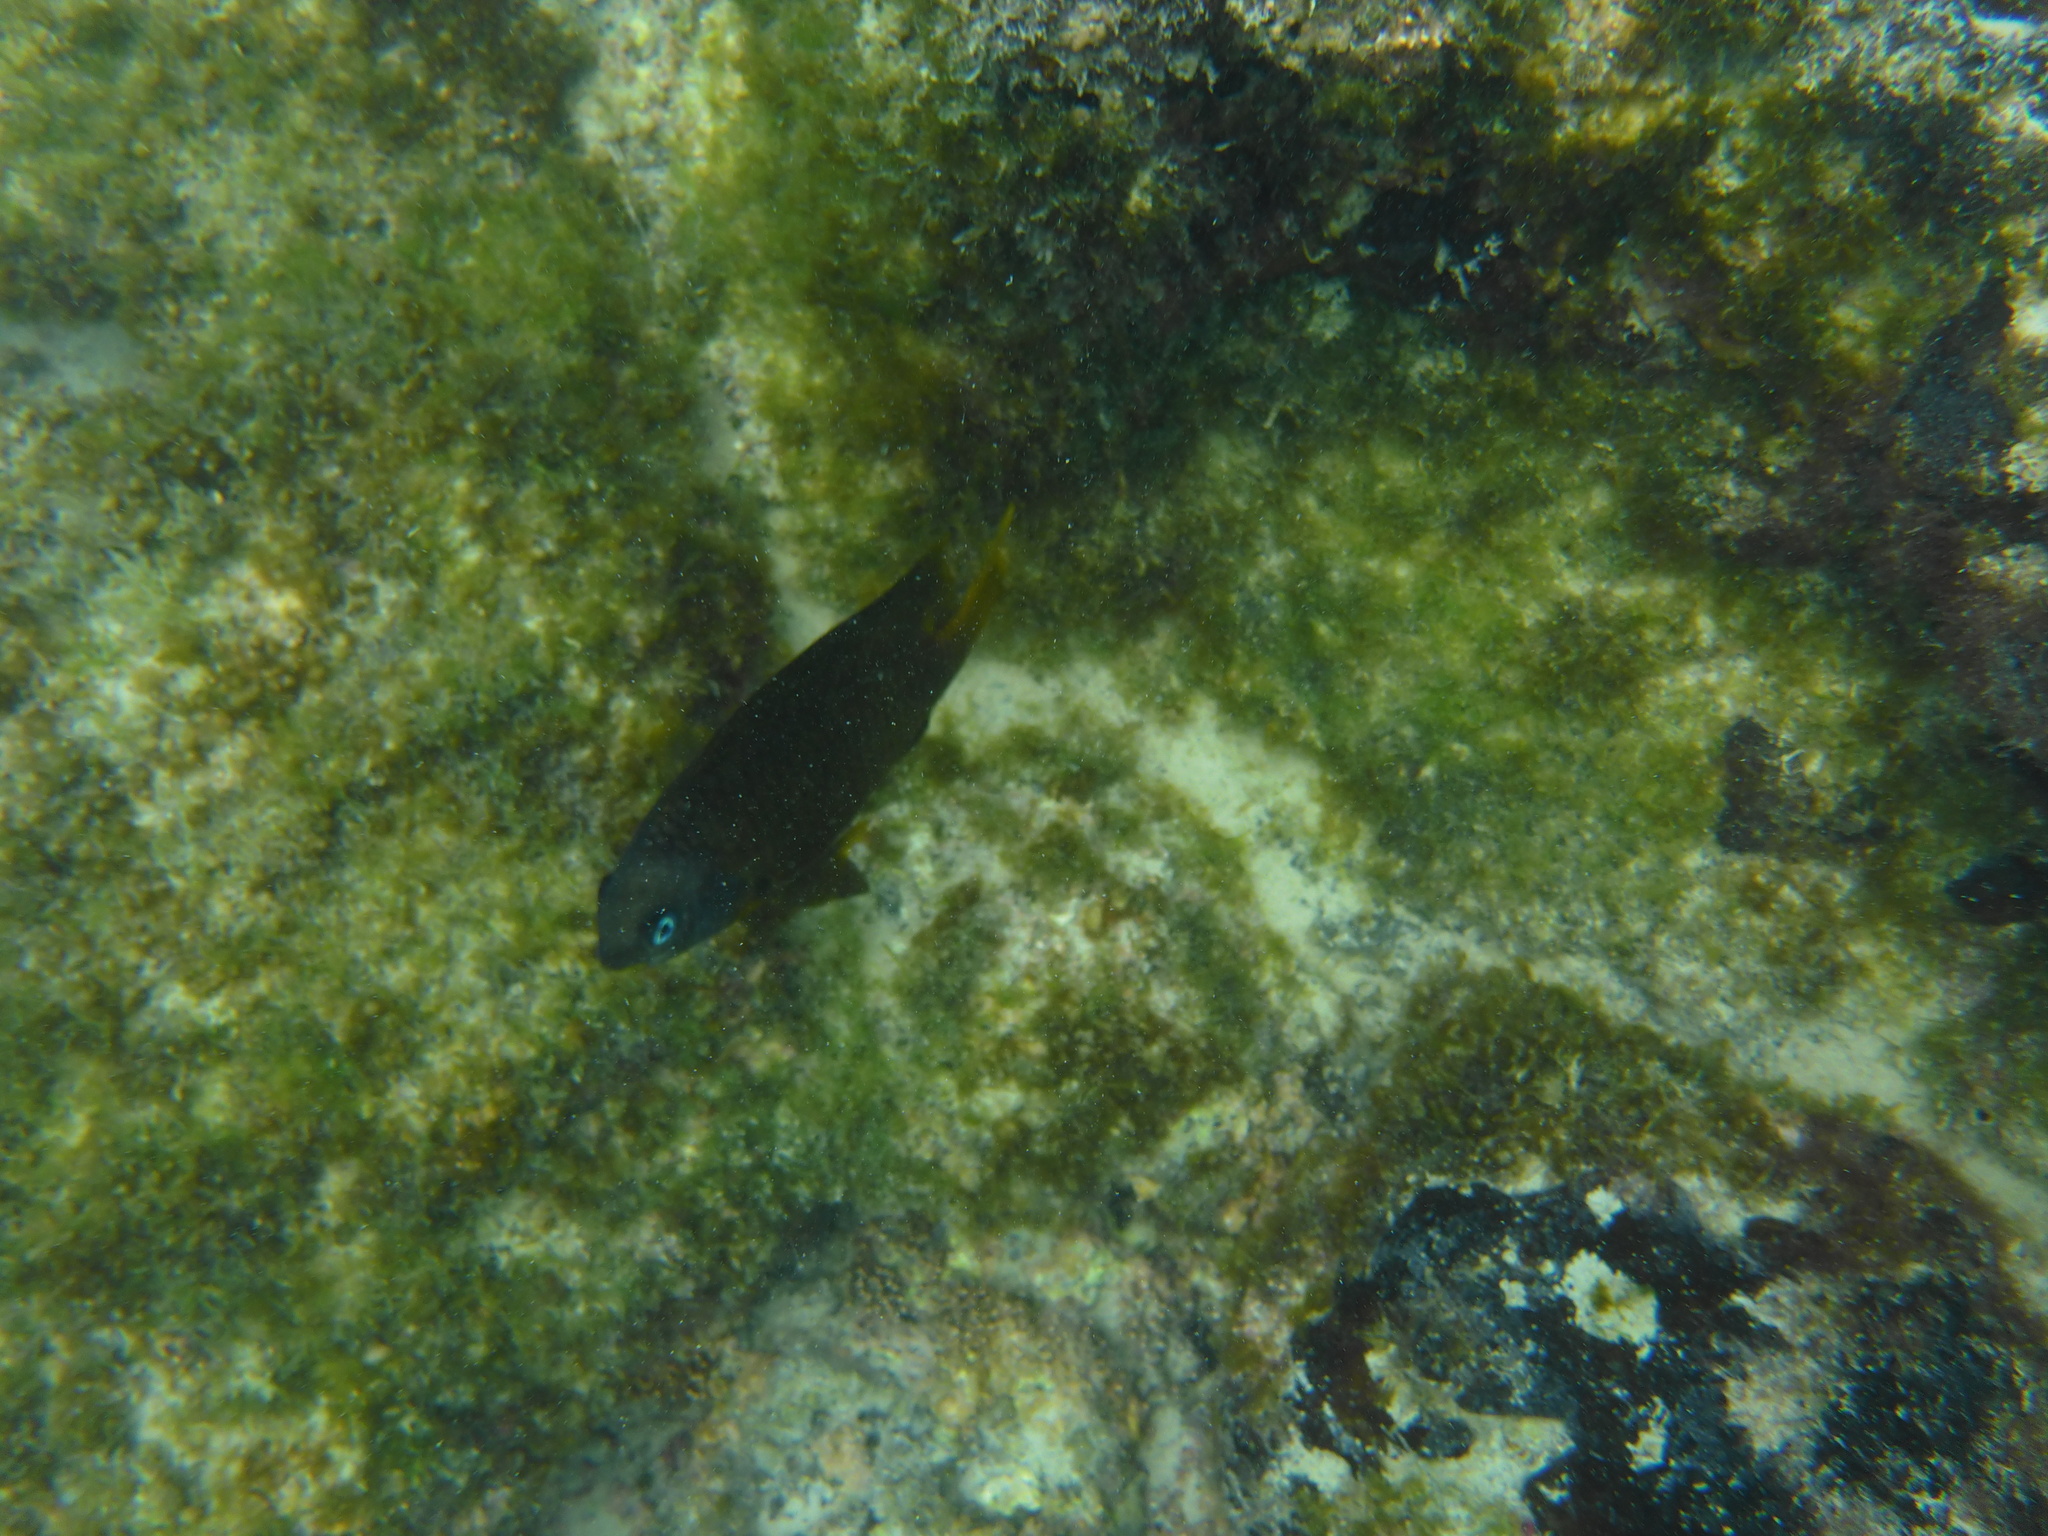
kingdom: Animalia
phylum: Chordata
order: Perciformes
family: Pomacentridae
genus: Stegastes
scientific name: Stegastes arcifrons
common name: Galapagos gregory
